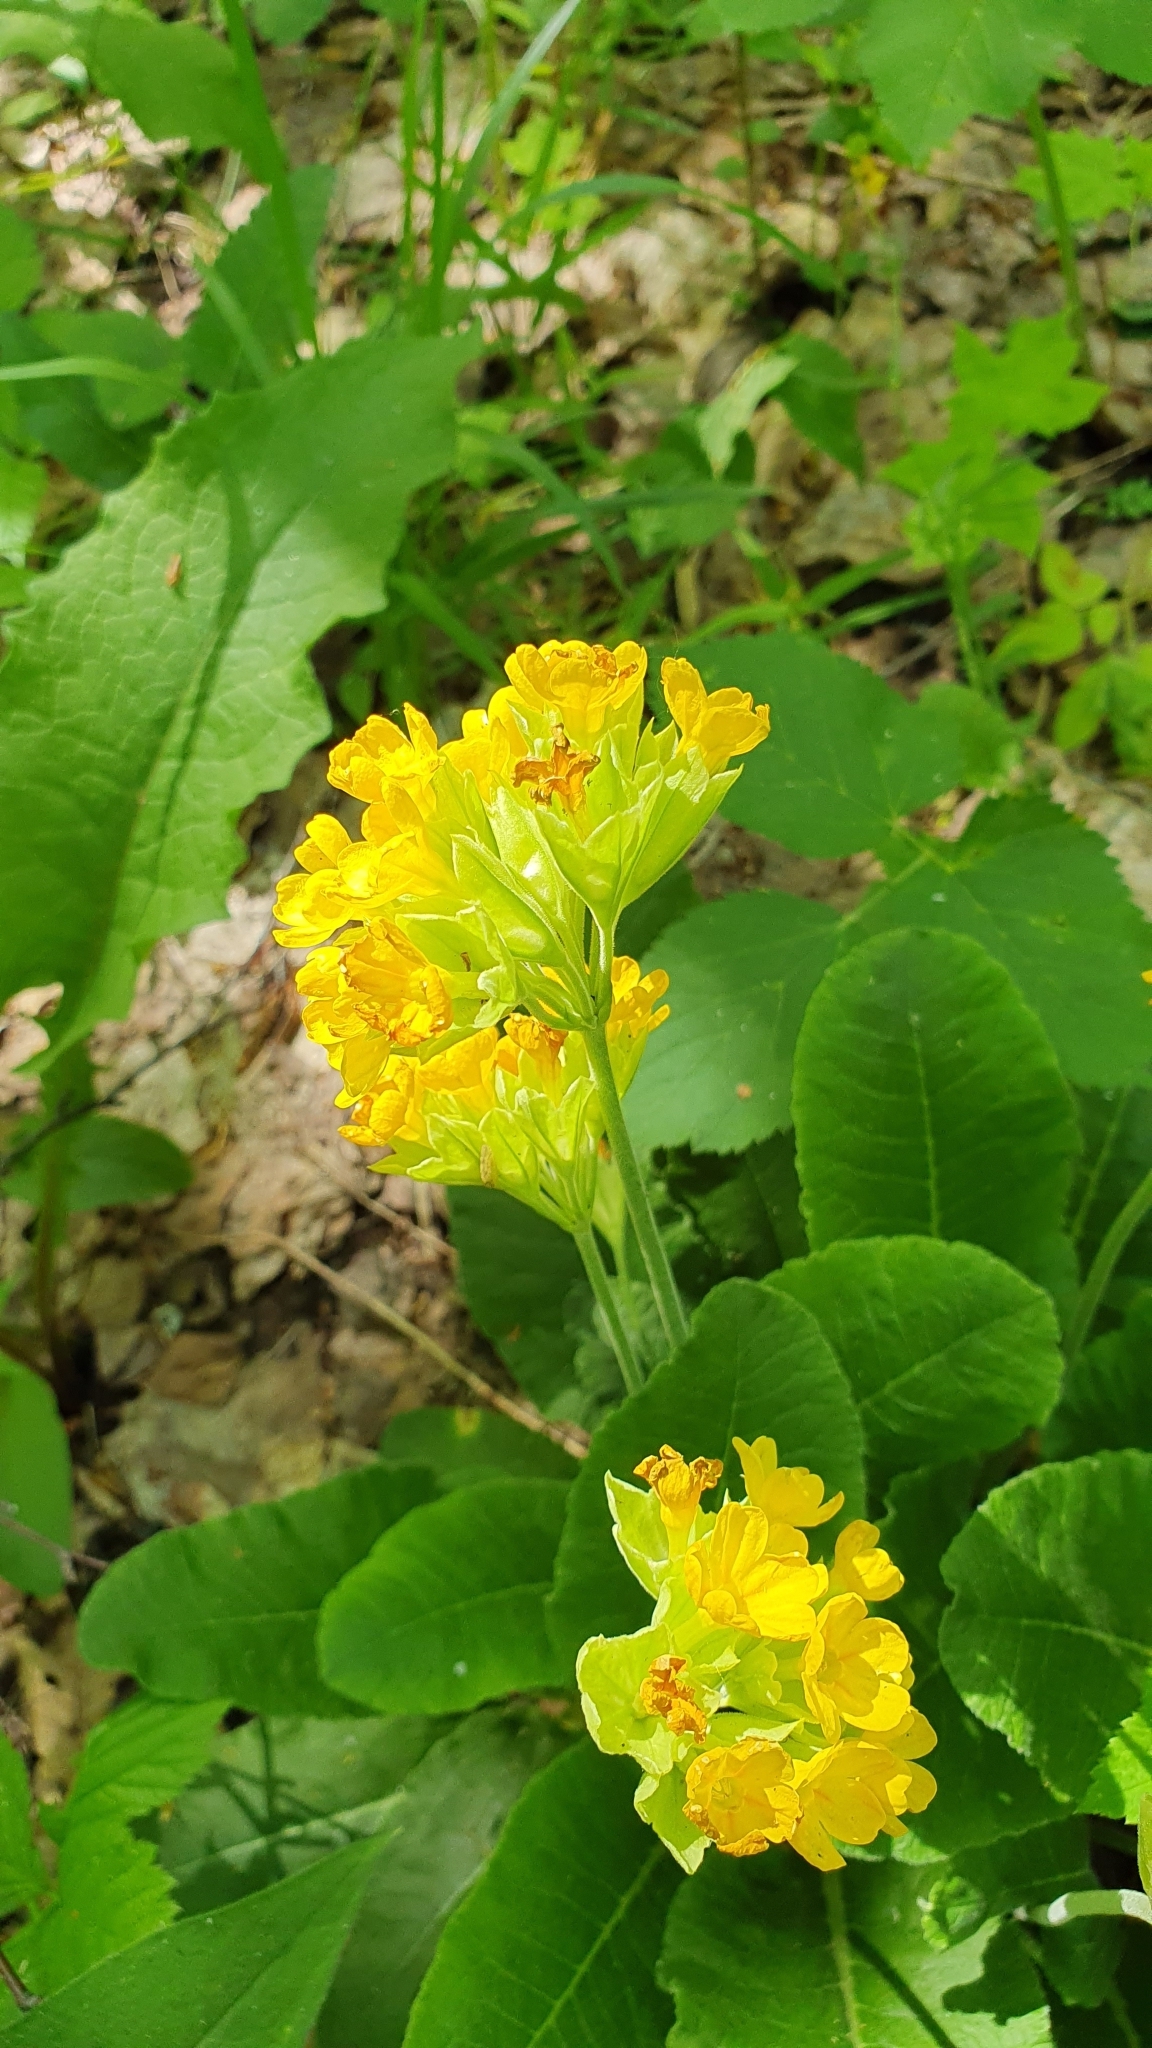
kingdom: Plantae
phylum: Tracheophyta
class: Magnoliopsida
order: Ericales
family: Primulaceae
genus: Primula
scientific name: Primula veris
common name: Cowslip
